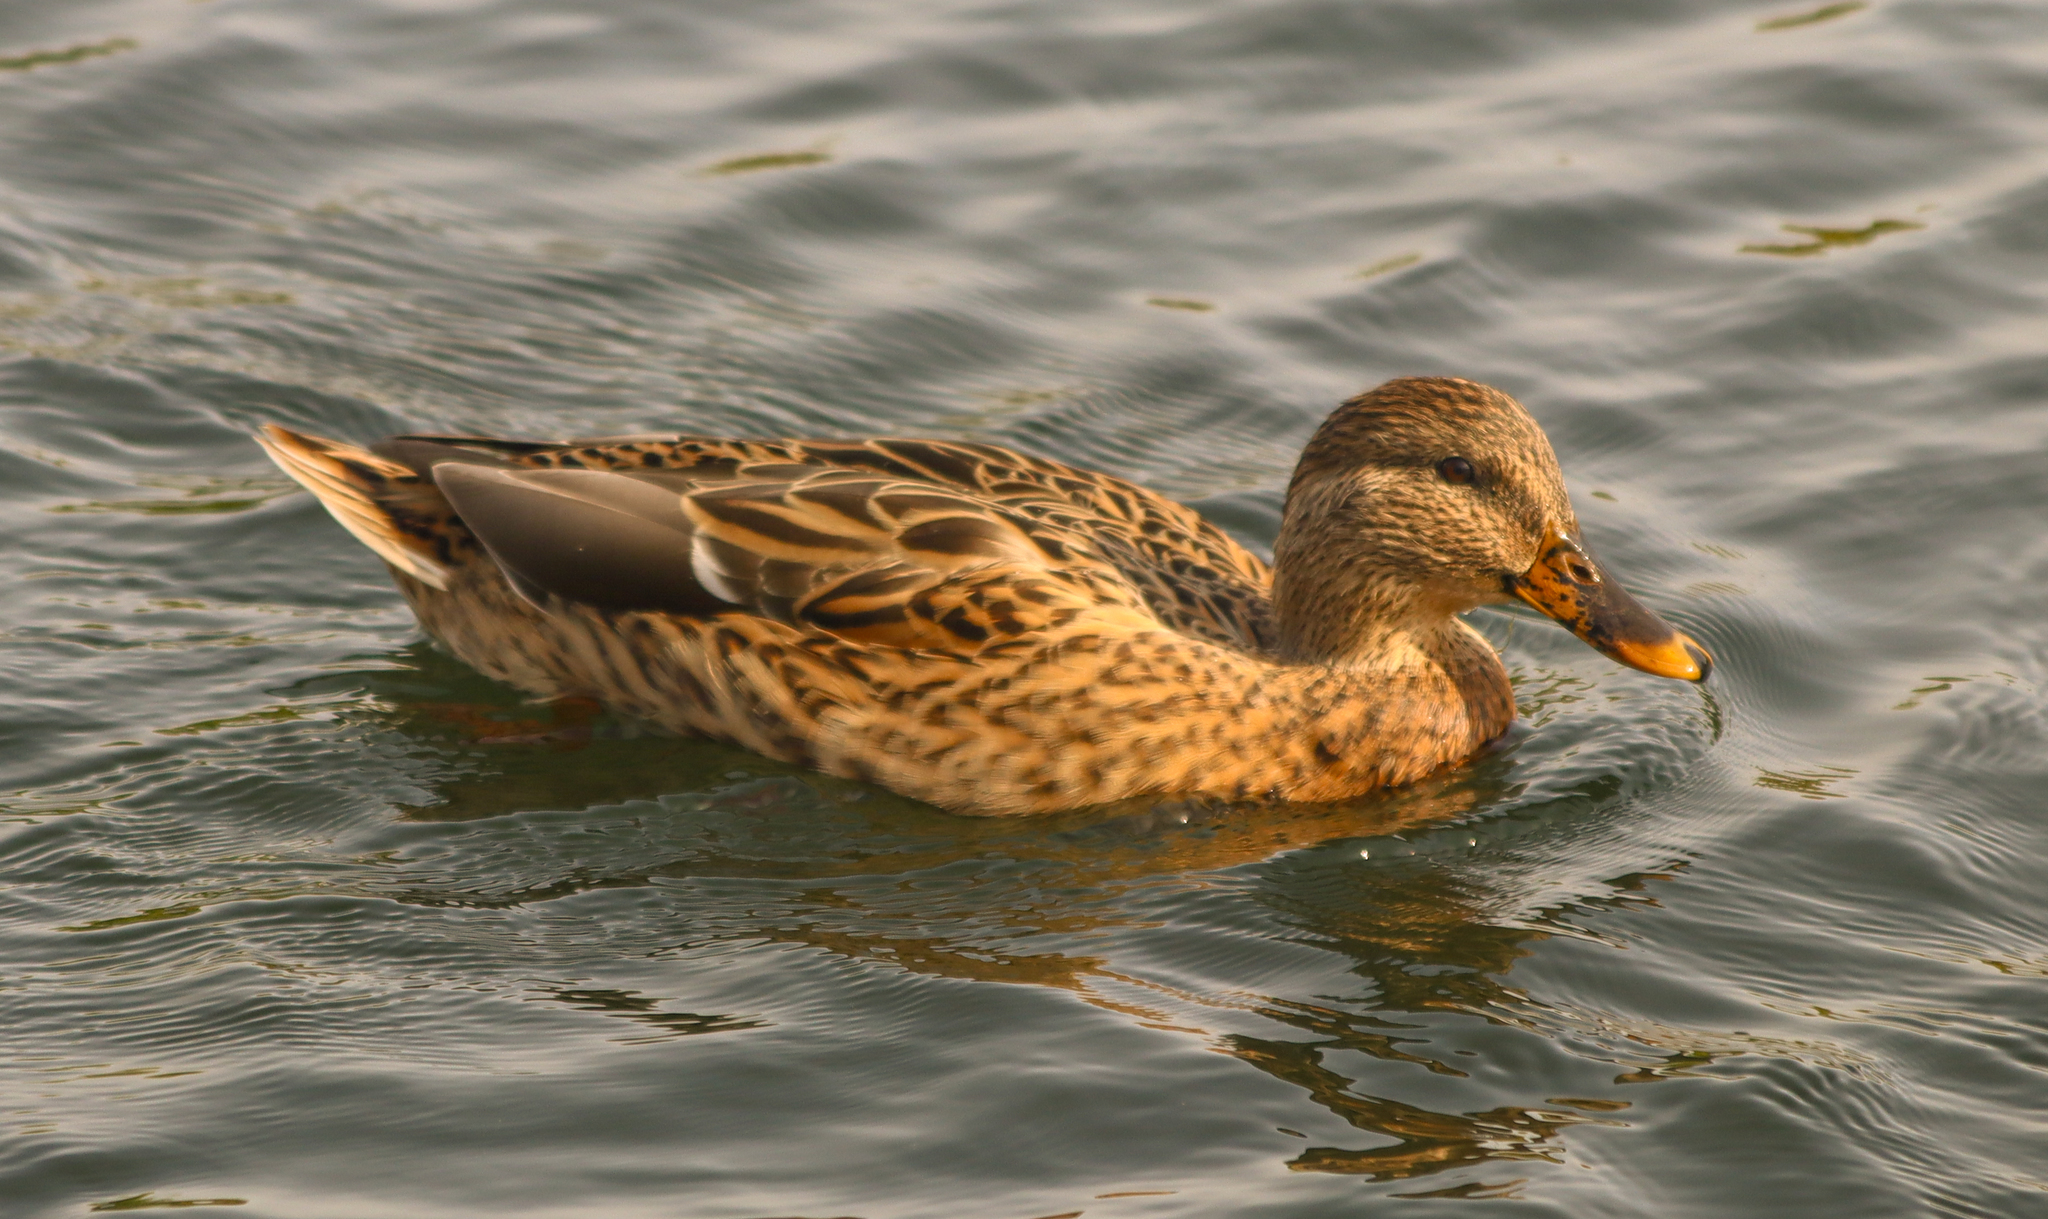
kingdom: Animalia
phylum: Chordata
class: Aves
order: Anseriformes
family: Anatidae
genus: Anas
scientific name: Anas platyrhynchos
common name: Mallard
